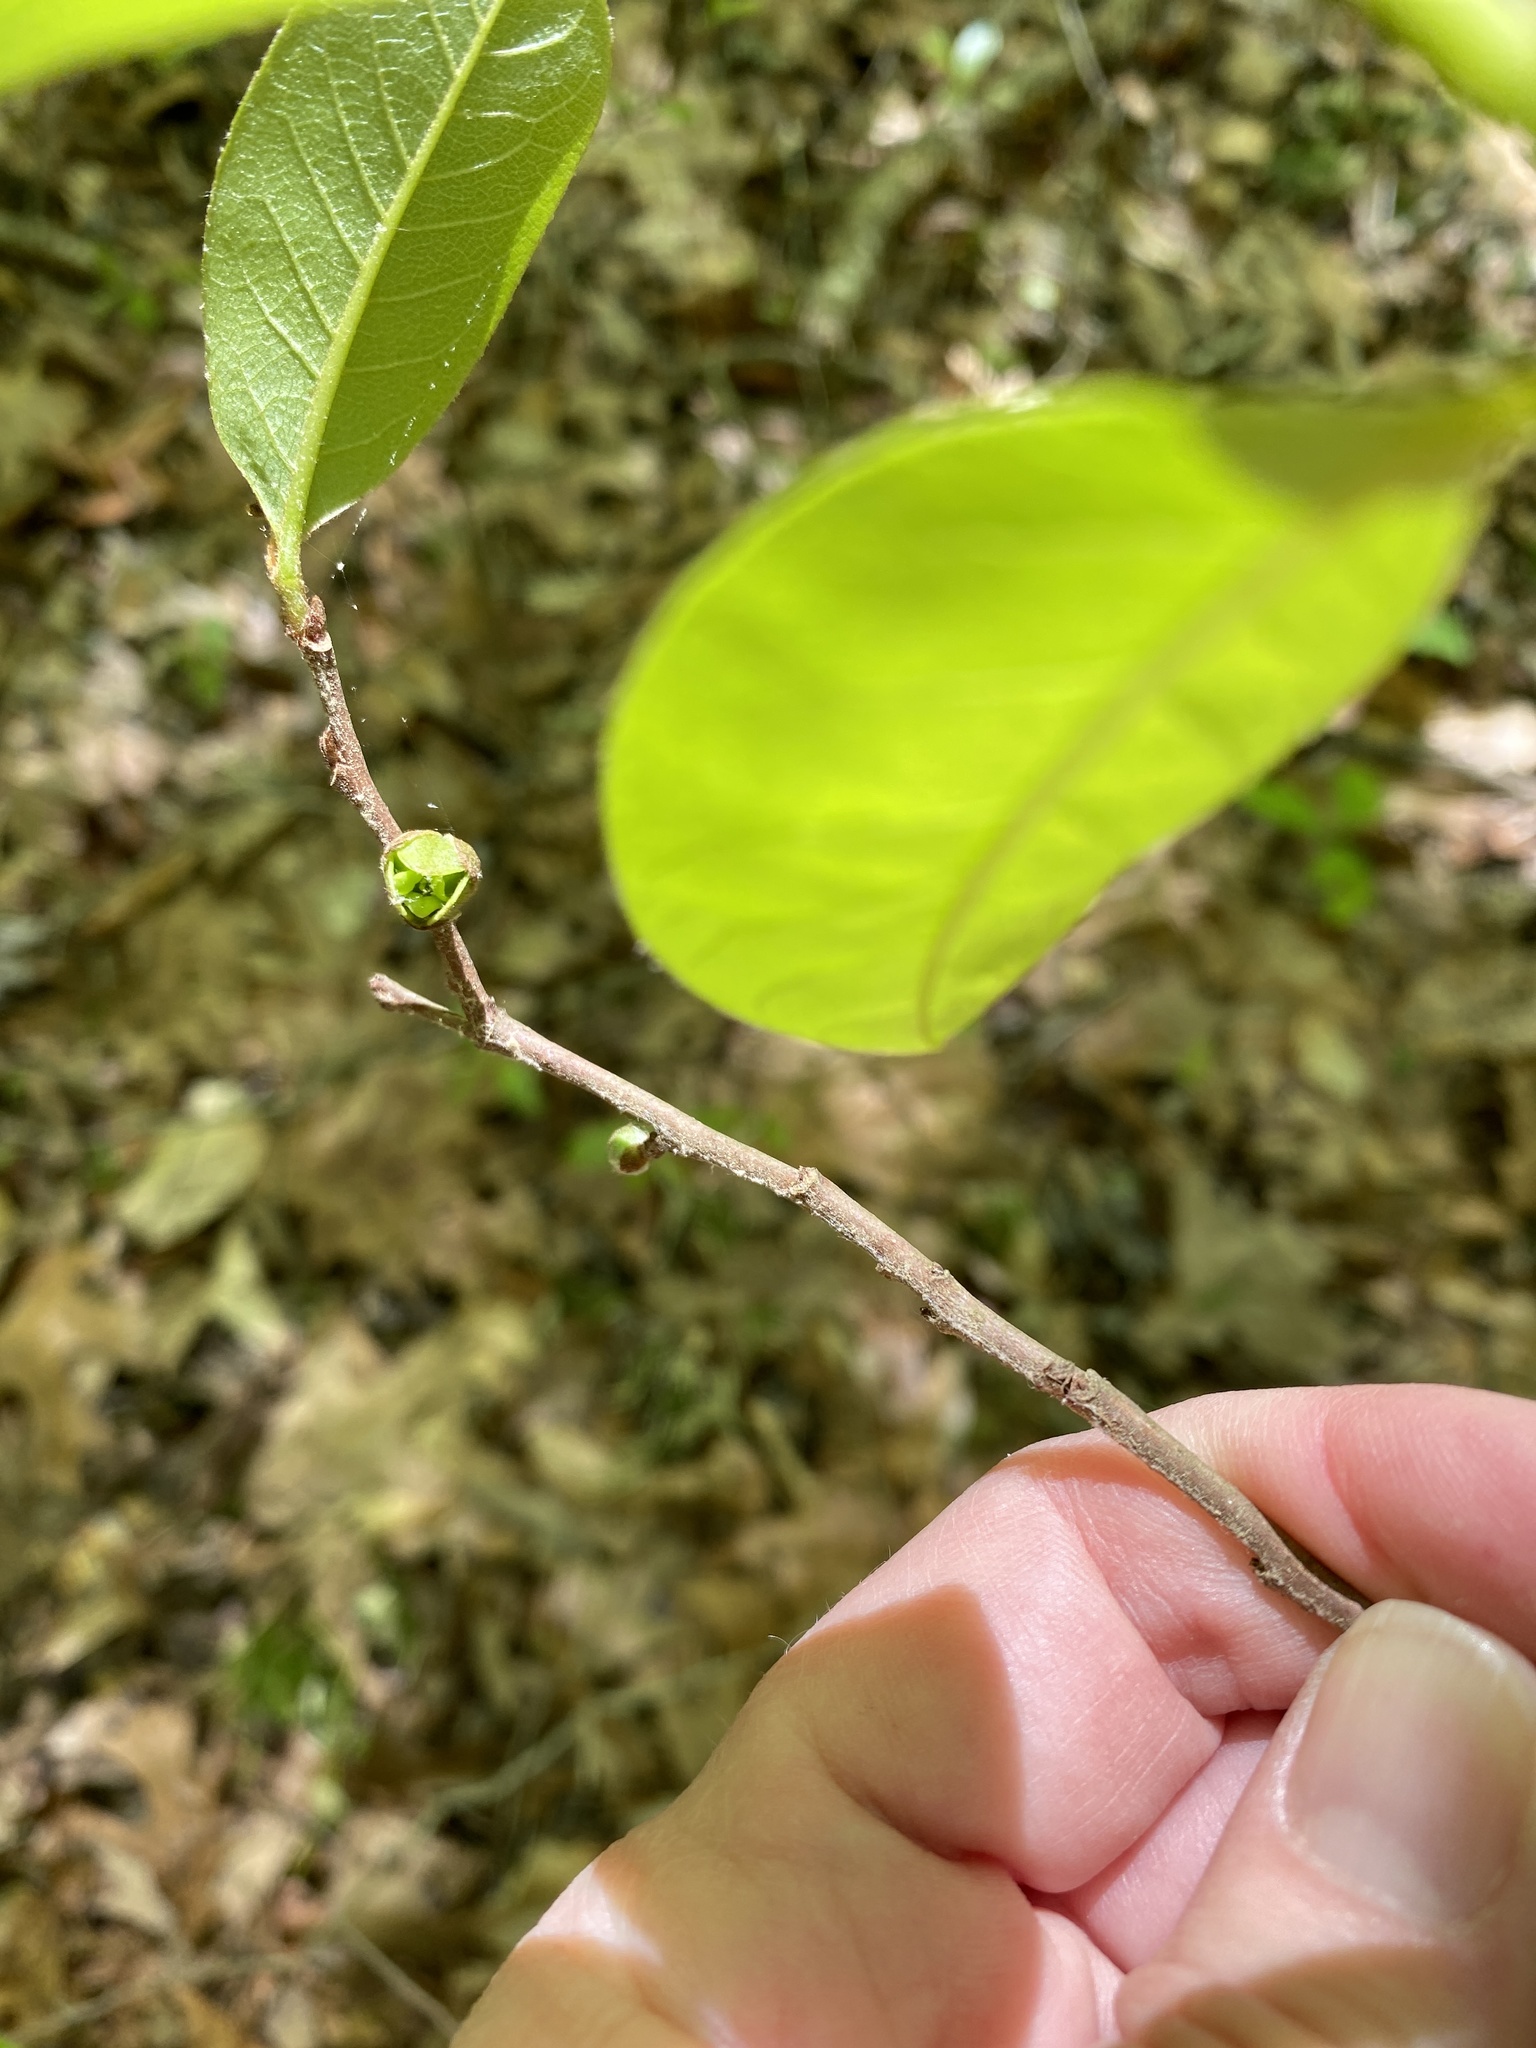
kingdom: Plantae
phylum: Tracheophyta
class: Magnoliopsida
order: Magnoliales
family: Annonaceae
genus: Asimina
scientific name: Asimina parviflora
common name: Dwarf pawpaw
